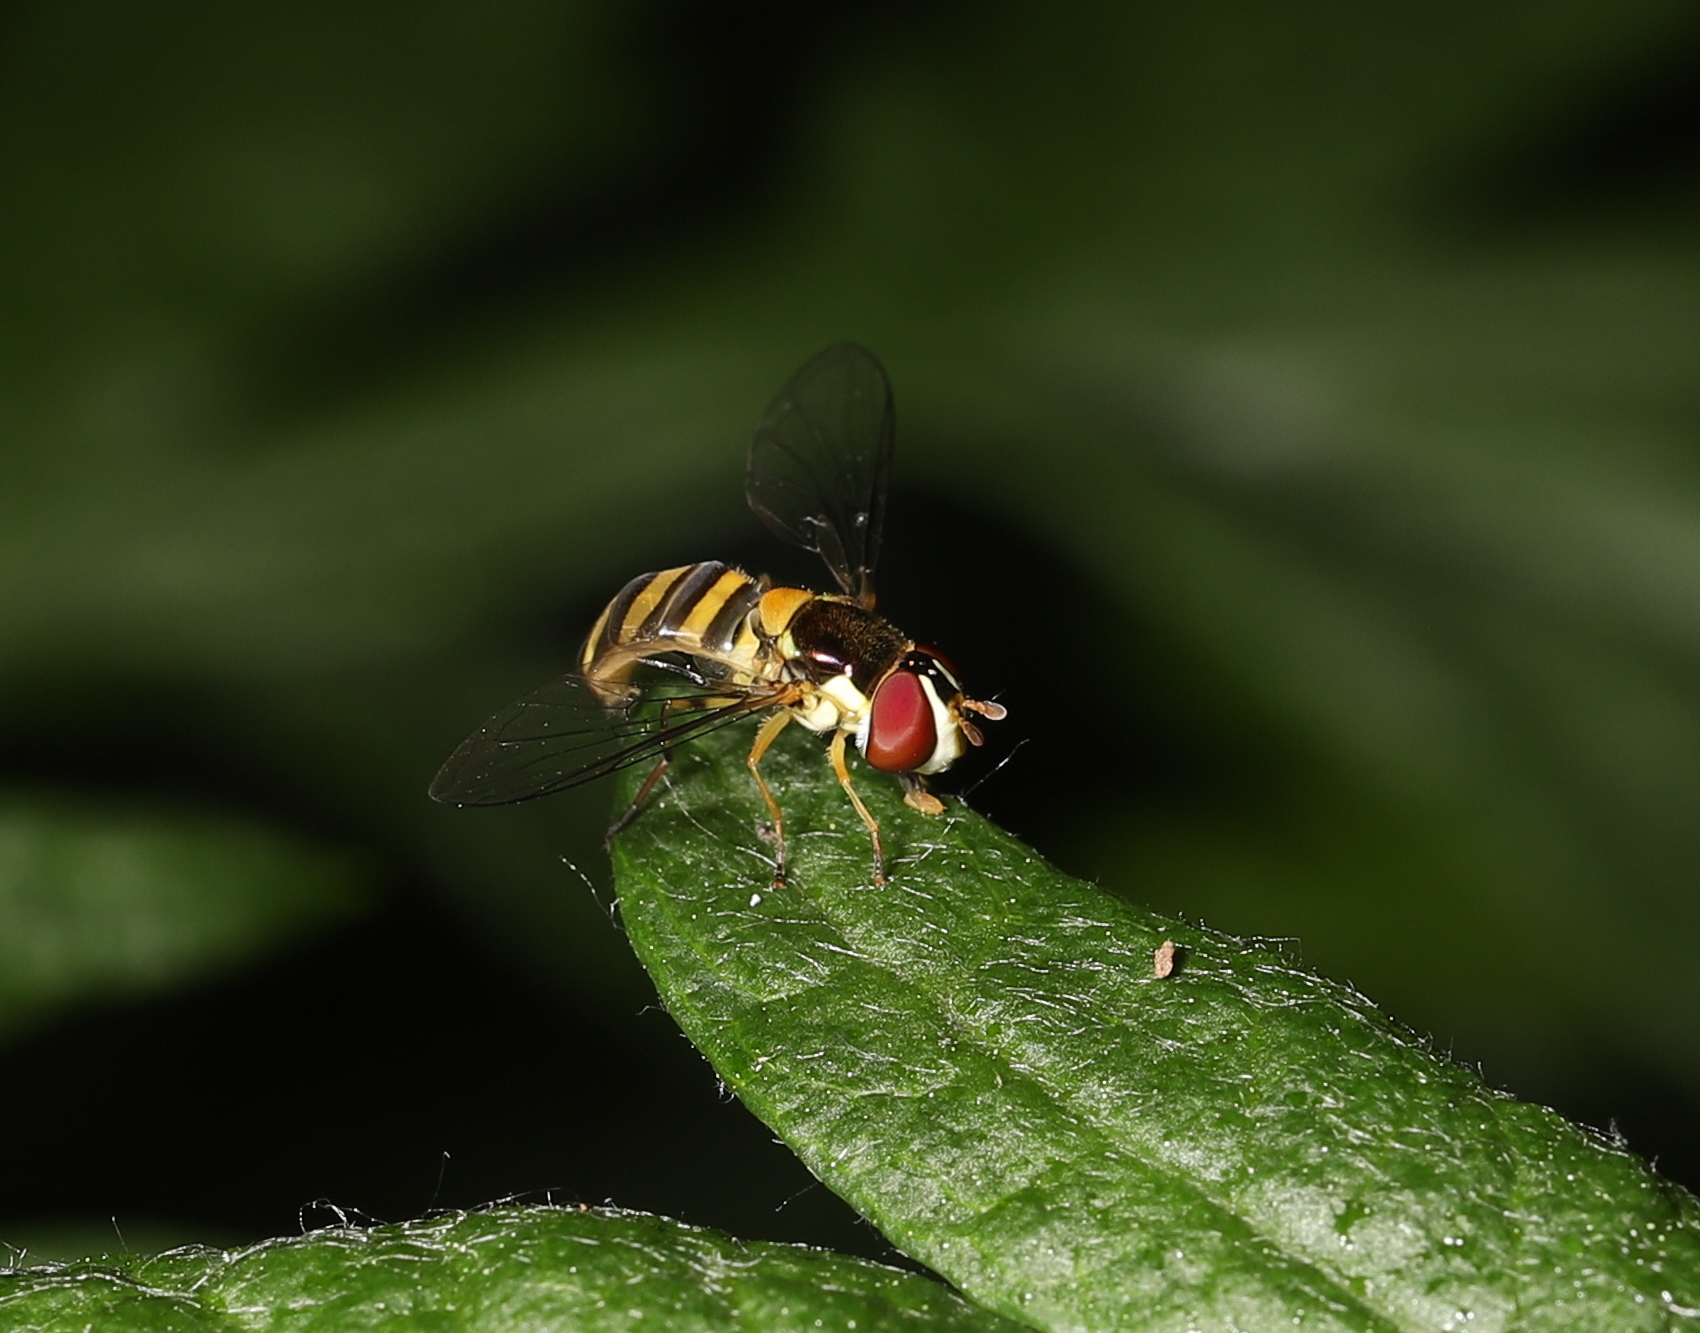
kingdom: Animalia
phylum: Arthropoda
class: Insecta
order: Diptera
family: Syrphidae
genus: Allograpta
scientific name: Allograpta obliqua
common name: Common oblique syrphid
